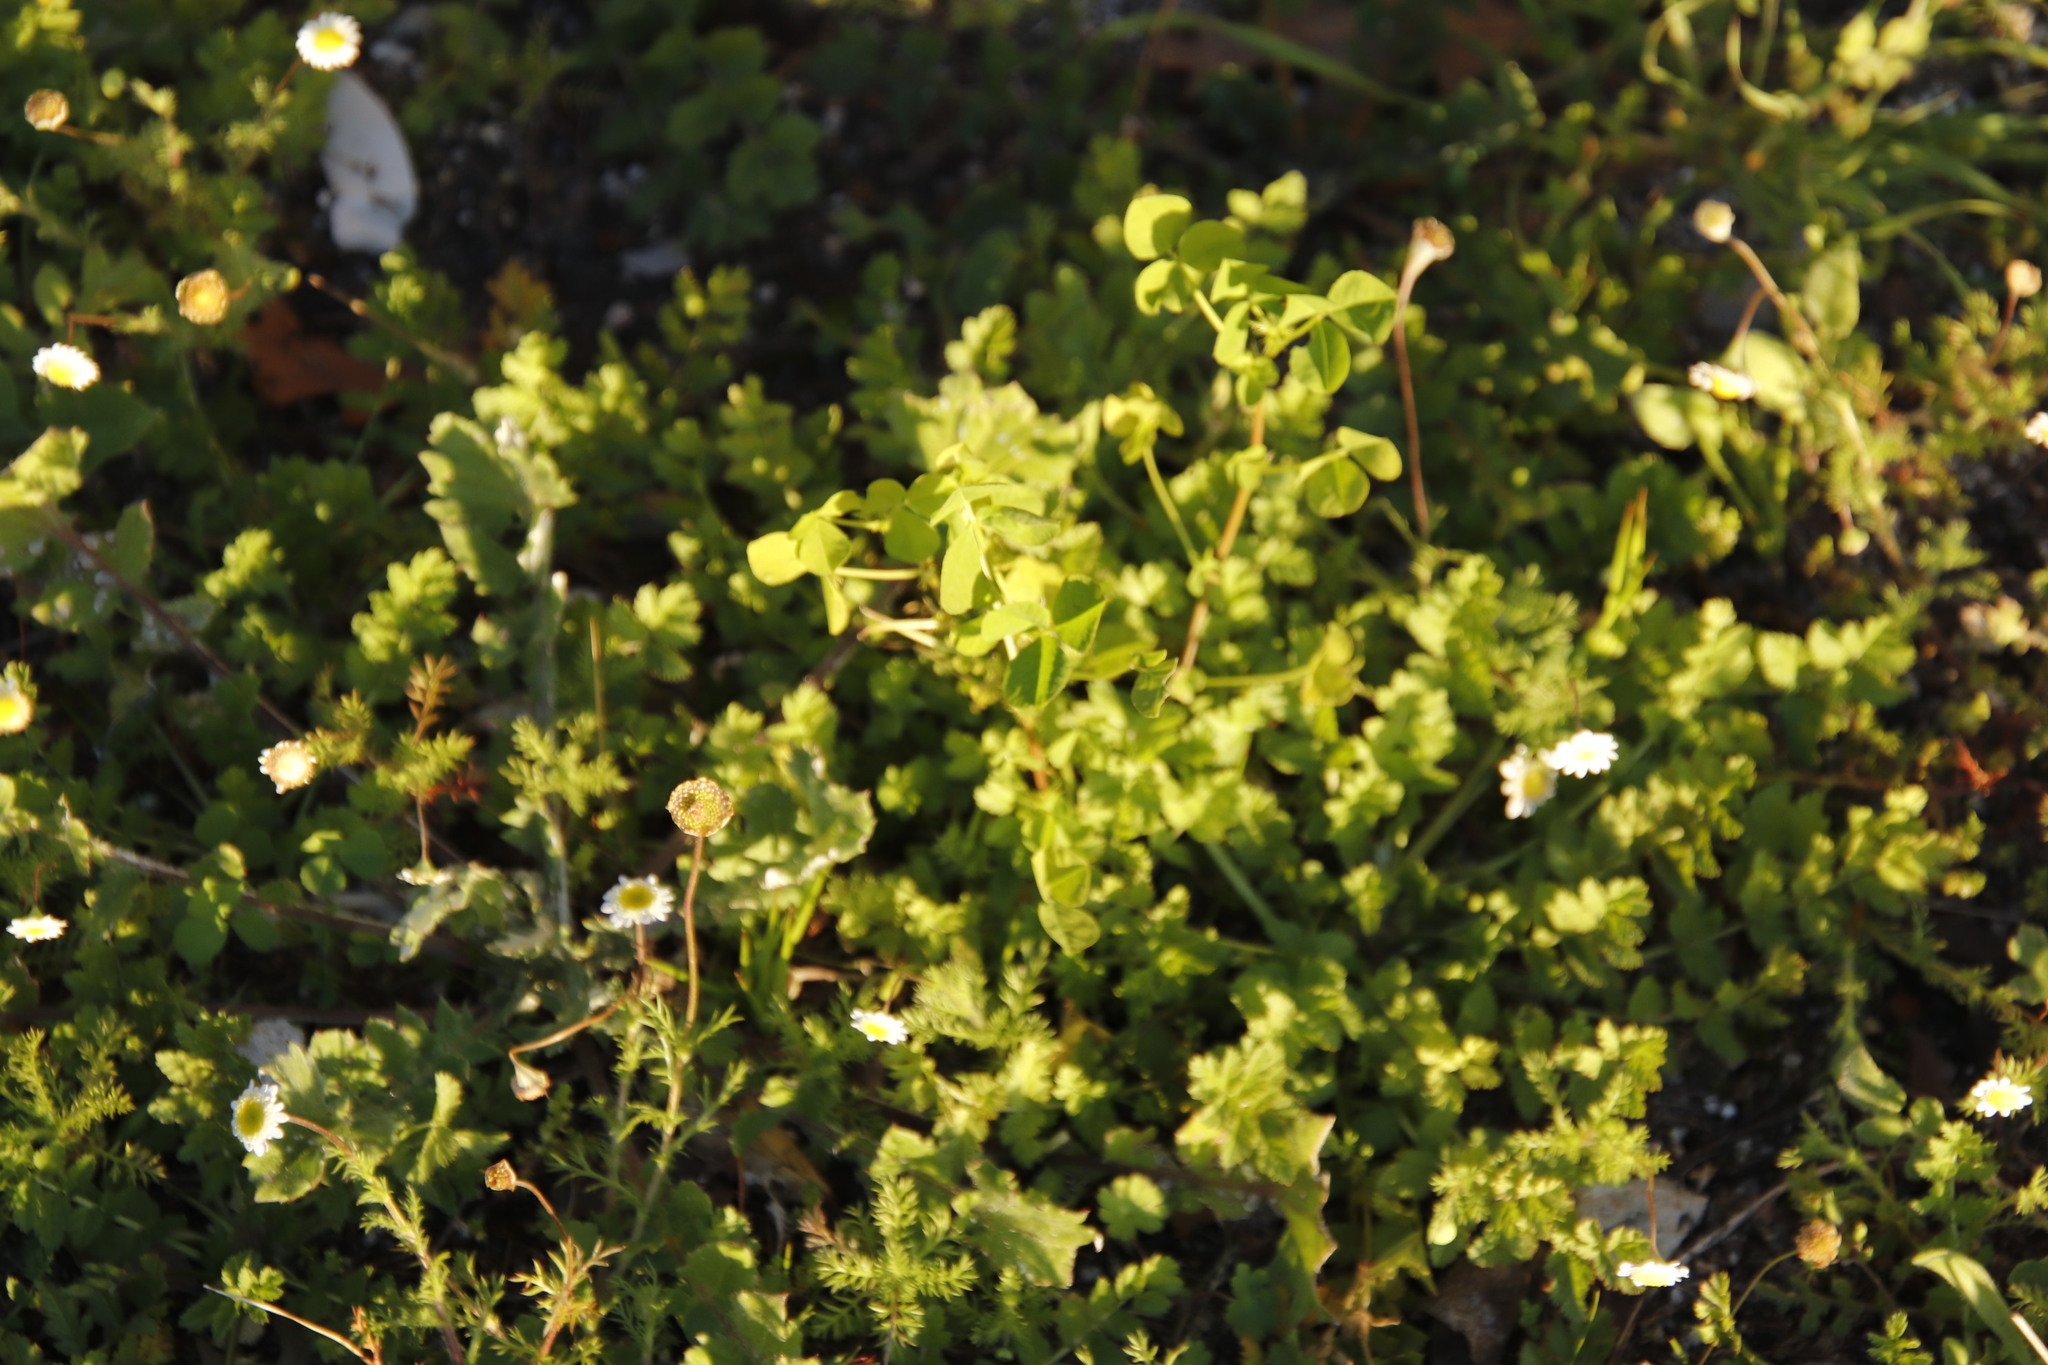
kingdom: Plantae
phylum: Tracheophyta
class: Magnoliopsida
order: Fabales
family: Fabaceae
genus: Medicago
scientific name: Medicago polymorpha
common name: Burclover
